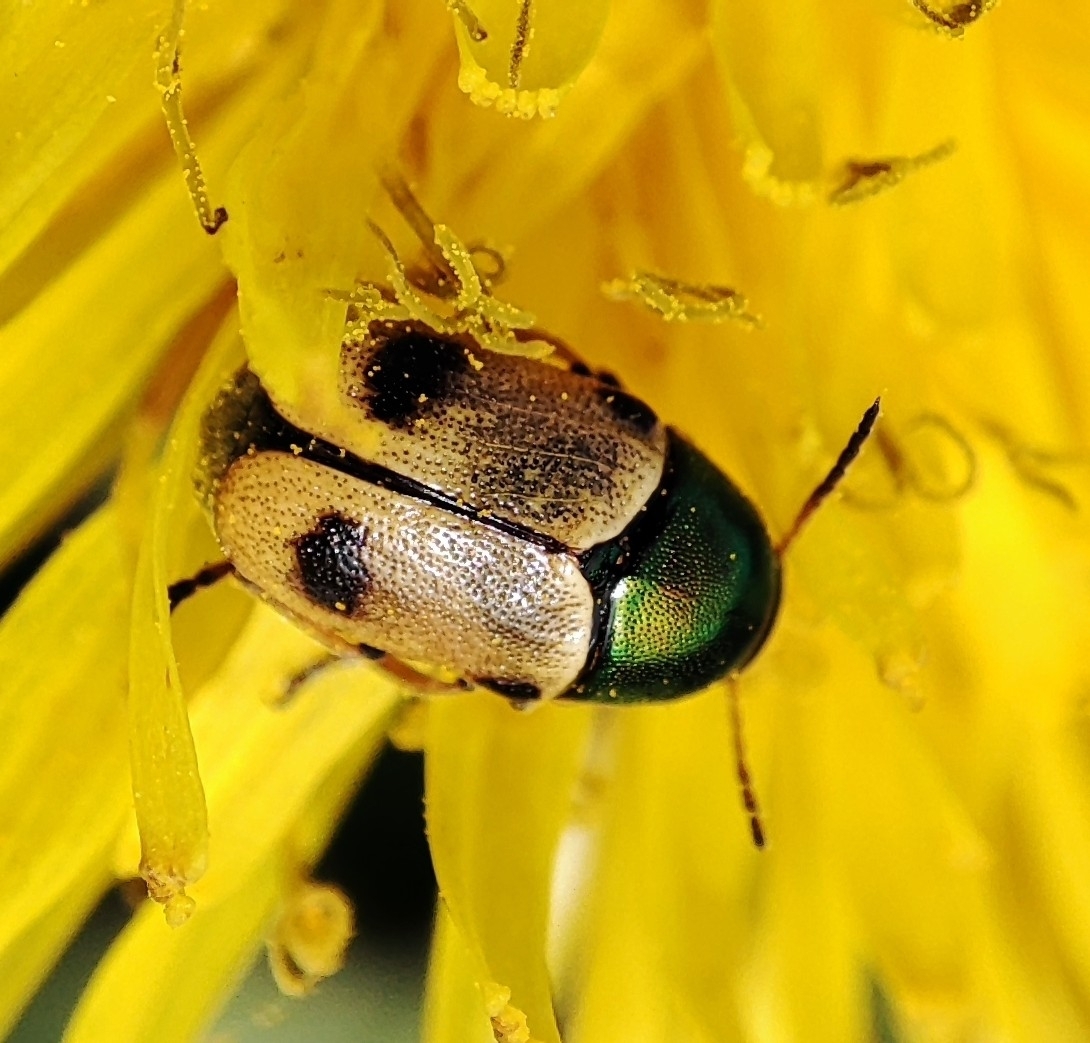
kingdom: Animalia
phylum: Arthropoda
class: Insecta
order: Coleoptera
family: Chrysomelidae
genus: Cryptocephalus
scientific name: Cryptocephalus laetus
